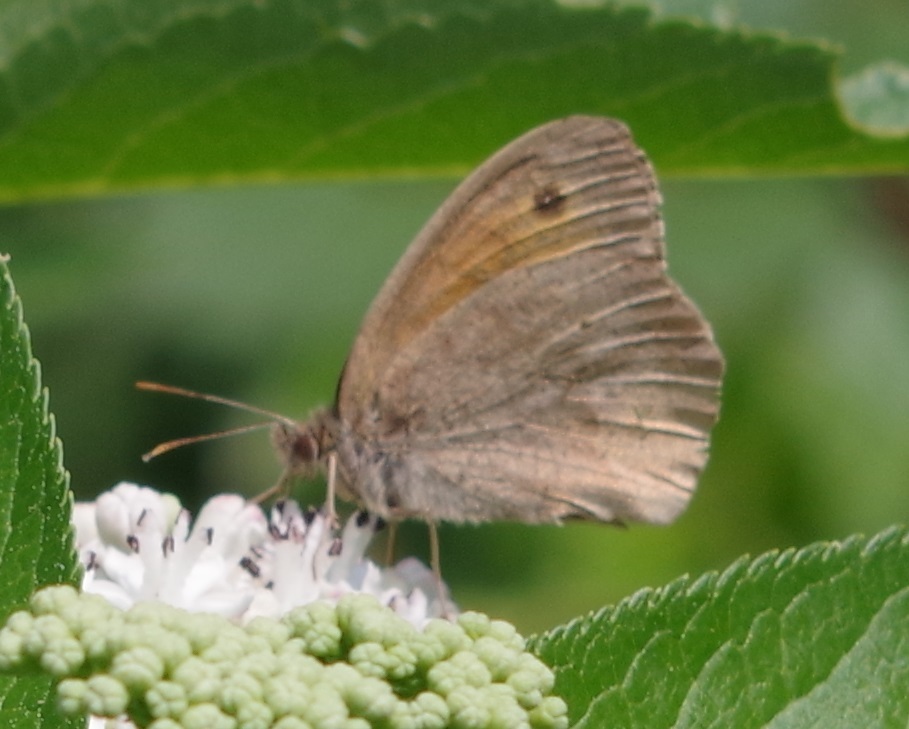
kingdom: Animalia
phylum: Arthropoda
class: Insecta
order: Lepidoptera
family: Nymphalidae
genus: Maniola
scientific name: Maniola jurtina
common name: Meadow brown
